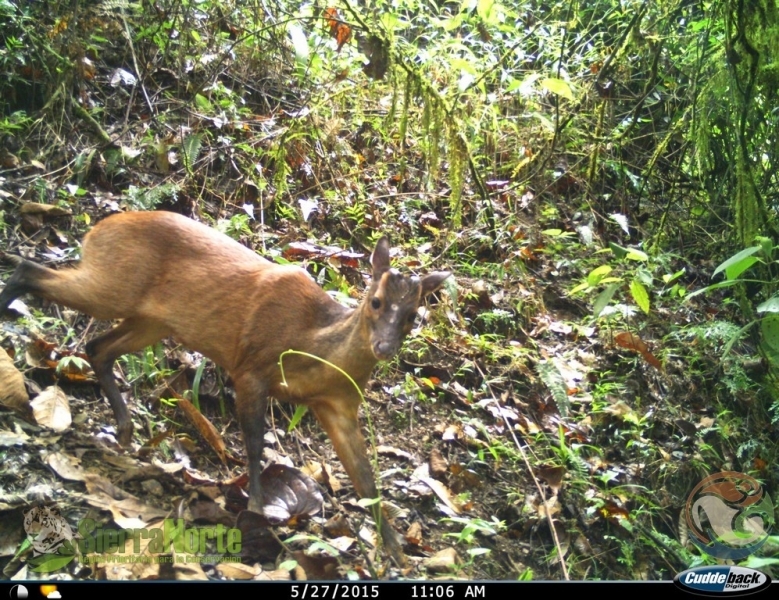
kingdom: Animalia
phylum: Chordata
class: Mammalia
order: Artiodactyla
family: Cervidae
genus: Mazama
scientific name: Mazama temama
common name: Central american red brocket
